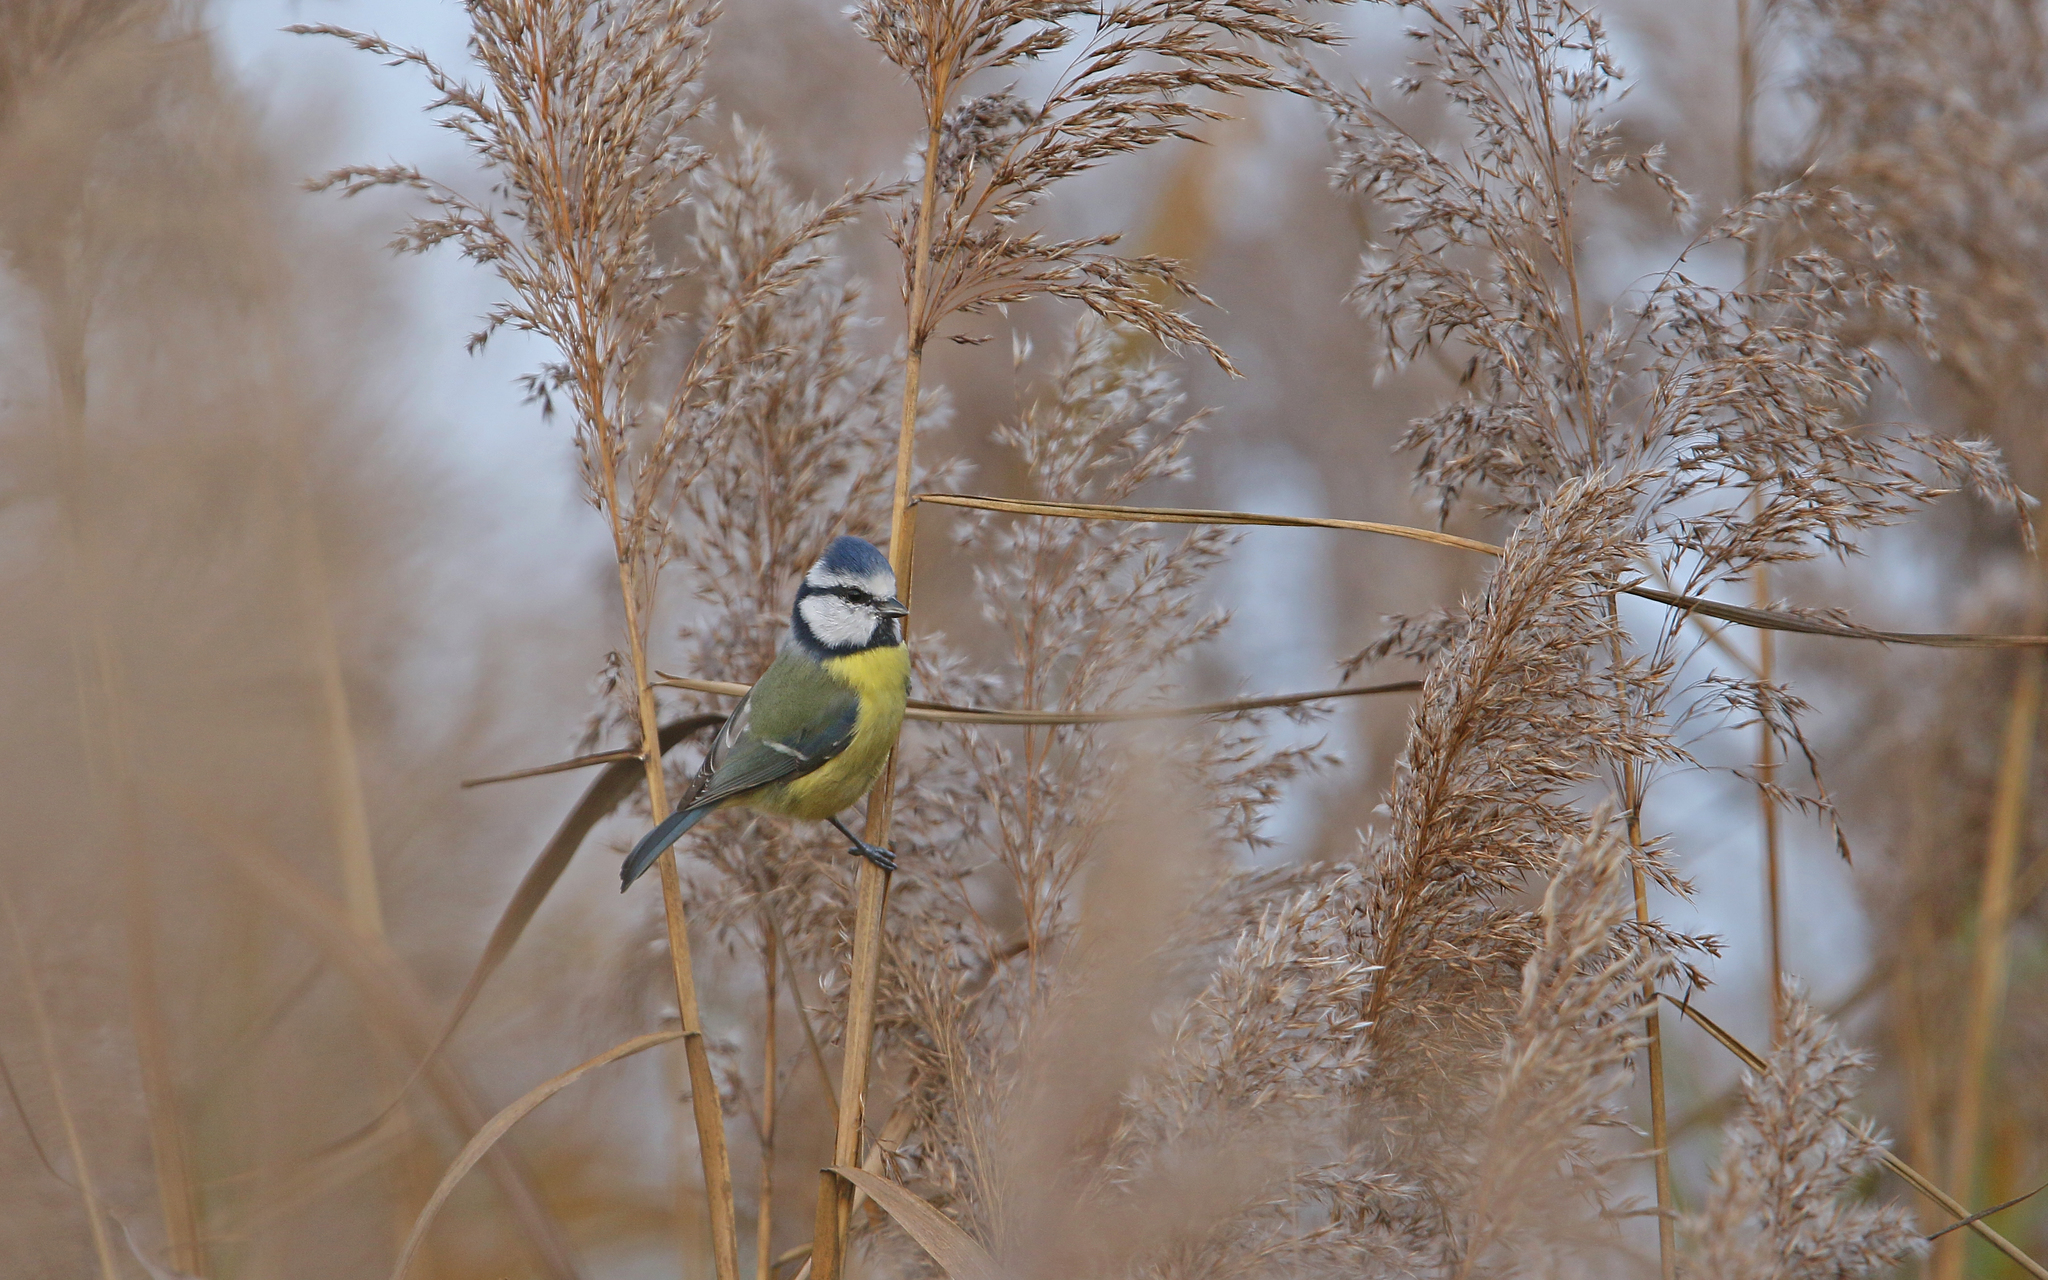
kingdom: Animalia
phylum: Chordata
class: Aves
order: Passeriformes
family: Paridae
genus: Cyanistes
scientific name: Cyanistes caeruleus
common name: Eurasian blue tit
